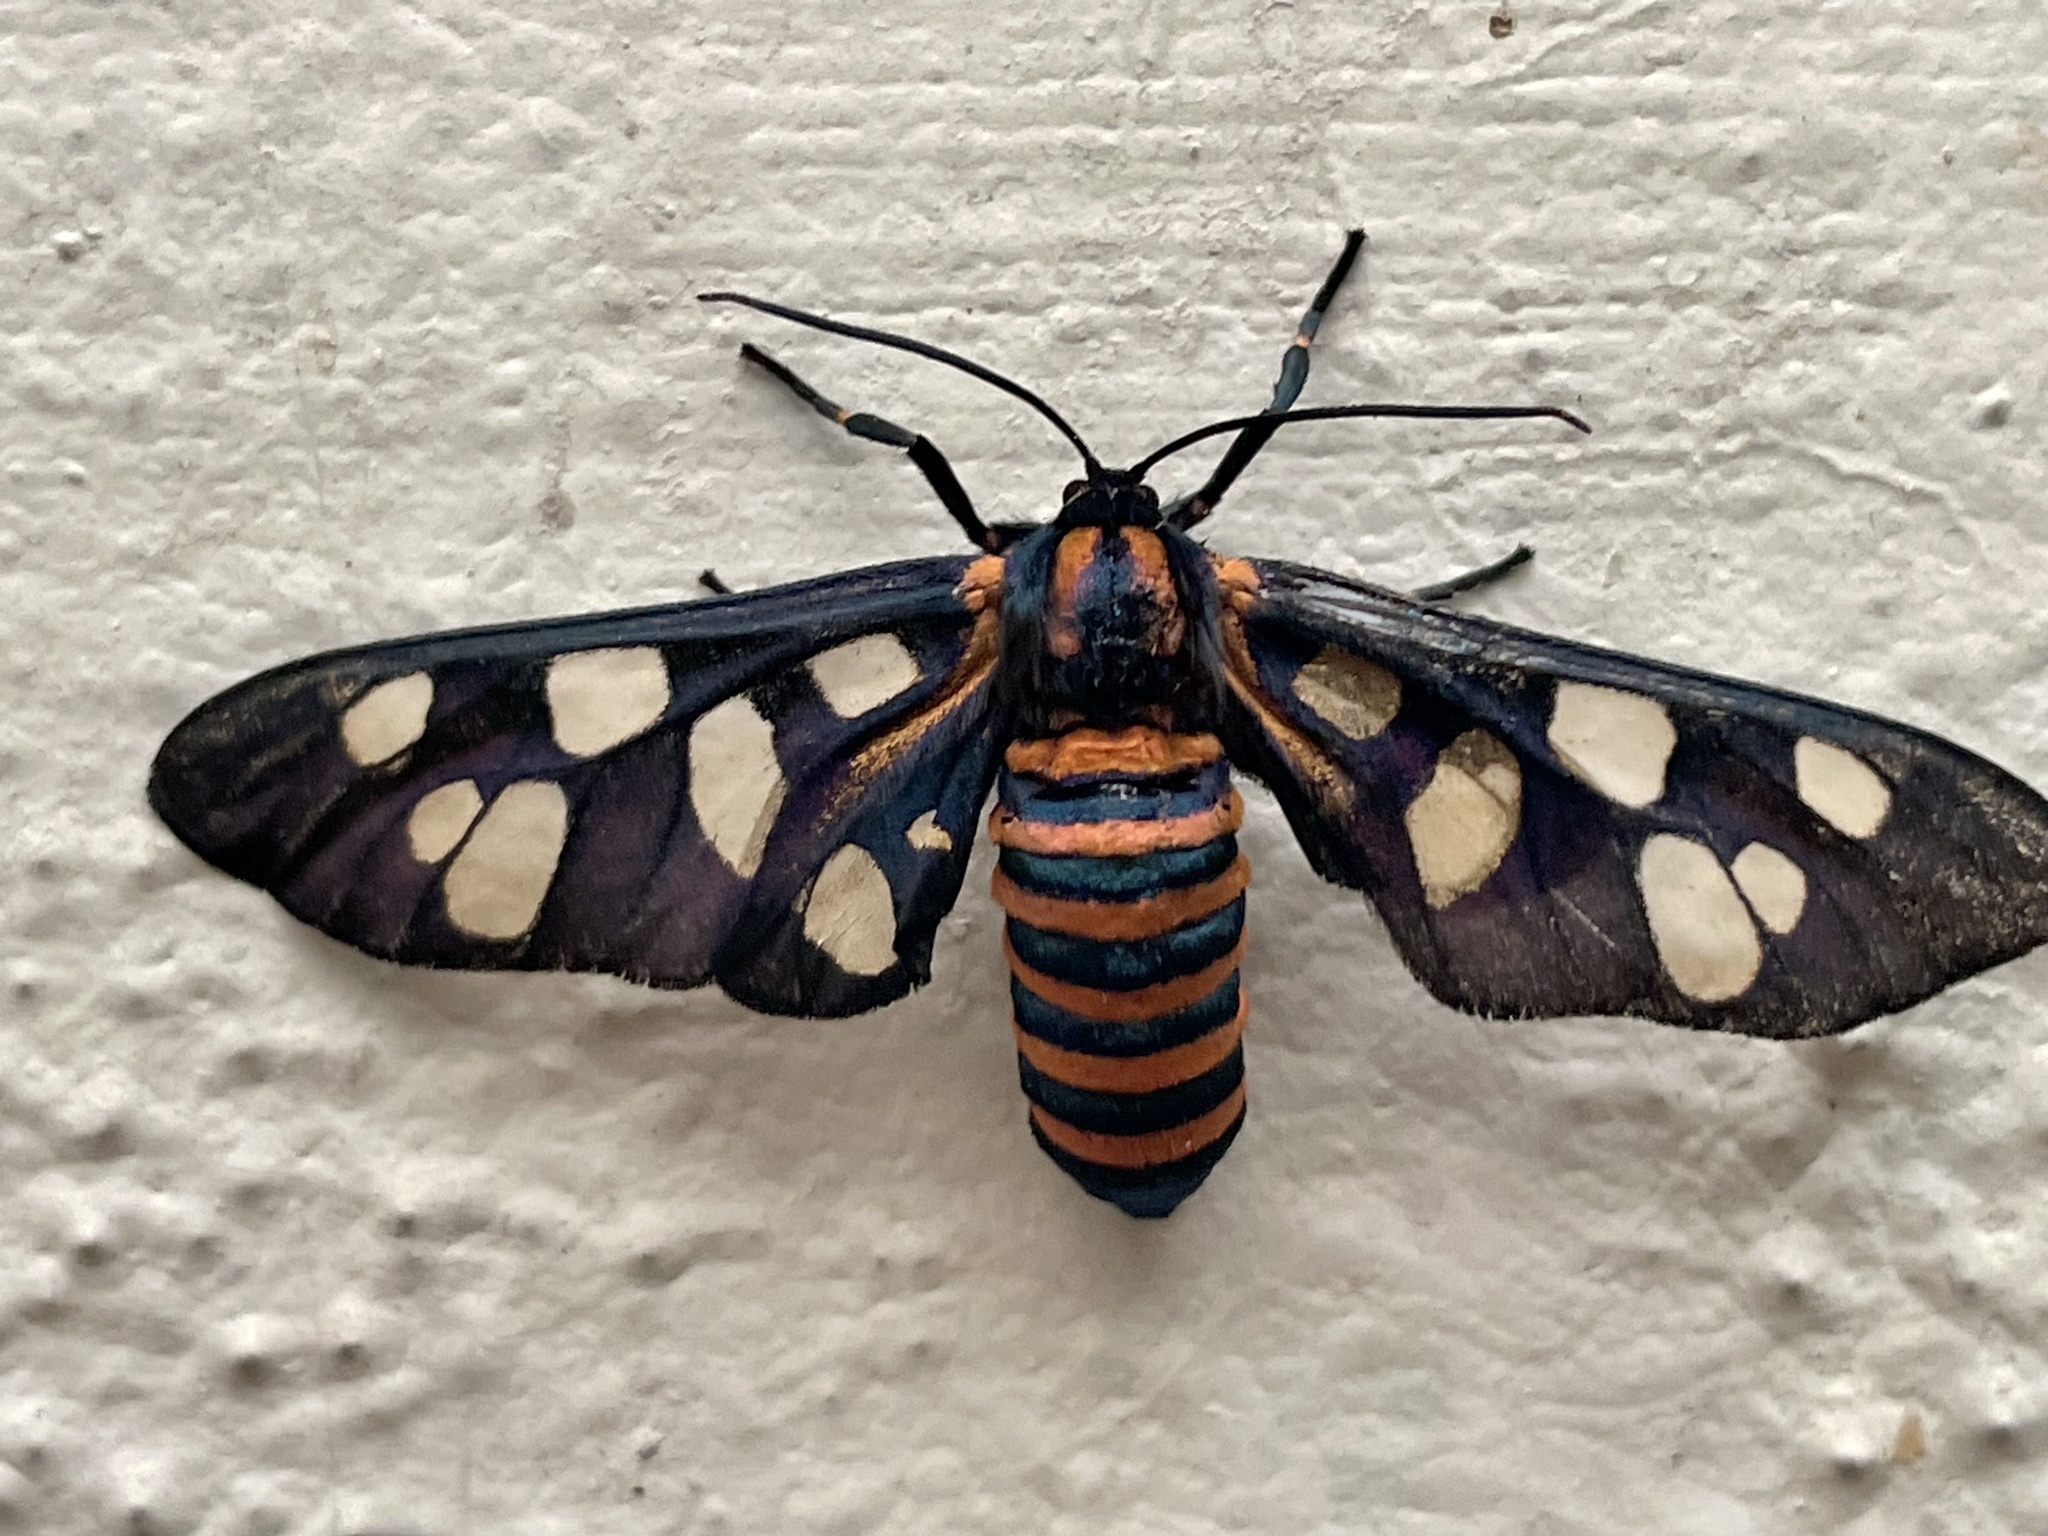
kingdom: Animalia
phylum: Arthropoda
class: Insecta
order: Lepidoptera
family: Erebidae
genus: Amata
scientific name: Amata passalis
